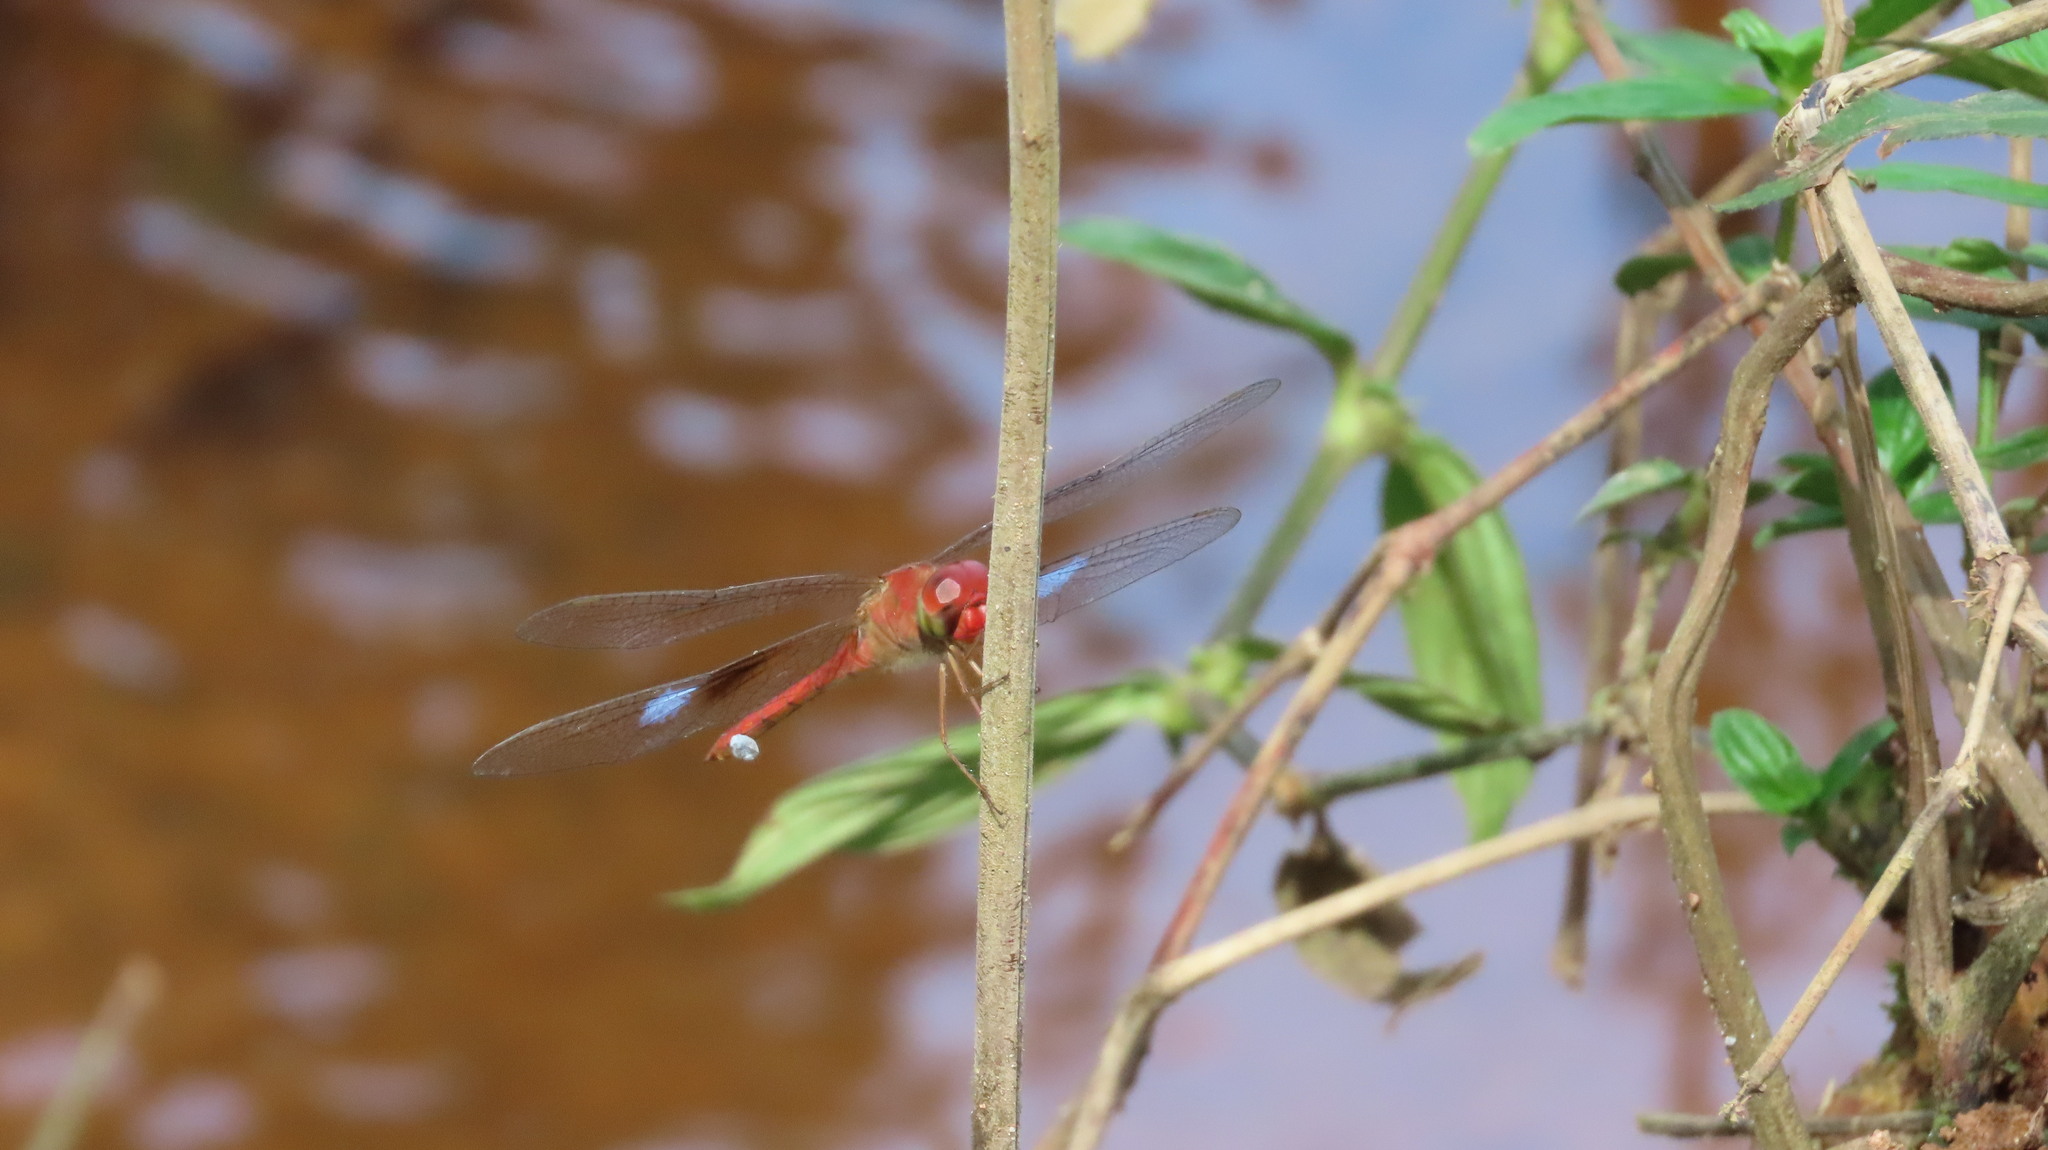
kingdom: Animalia
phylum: Arthropoda
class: Insecta
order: Odonata
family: Libellulidae
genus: Tholymis
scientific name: Tholymis tillarga
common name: Coral-tailed cloud wing
